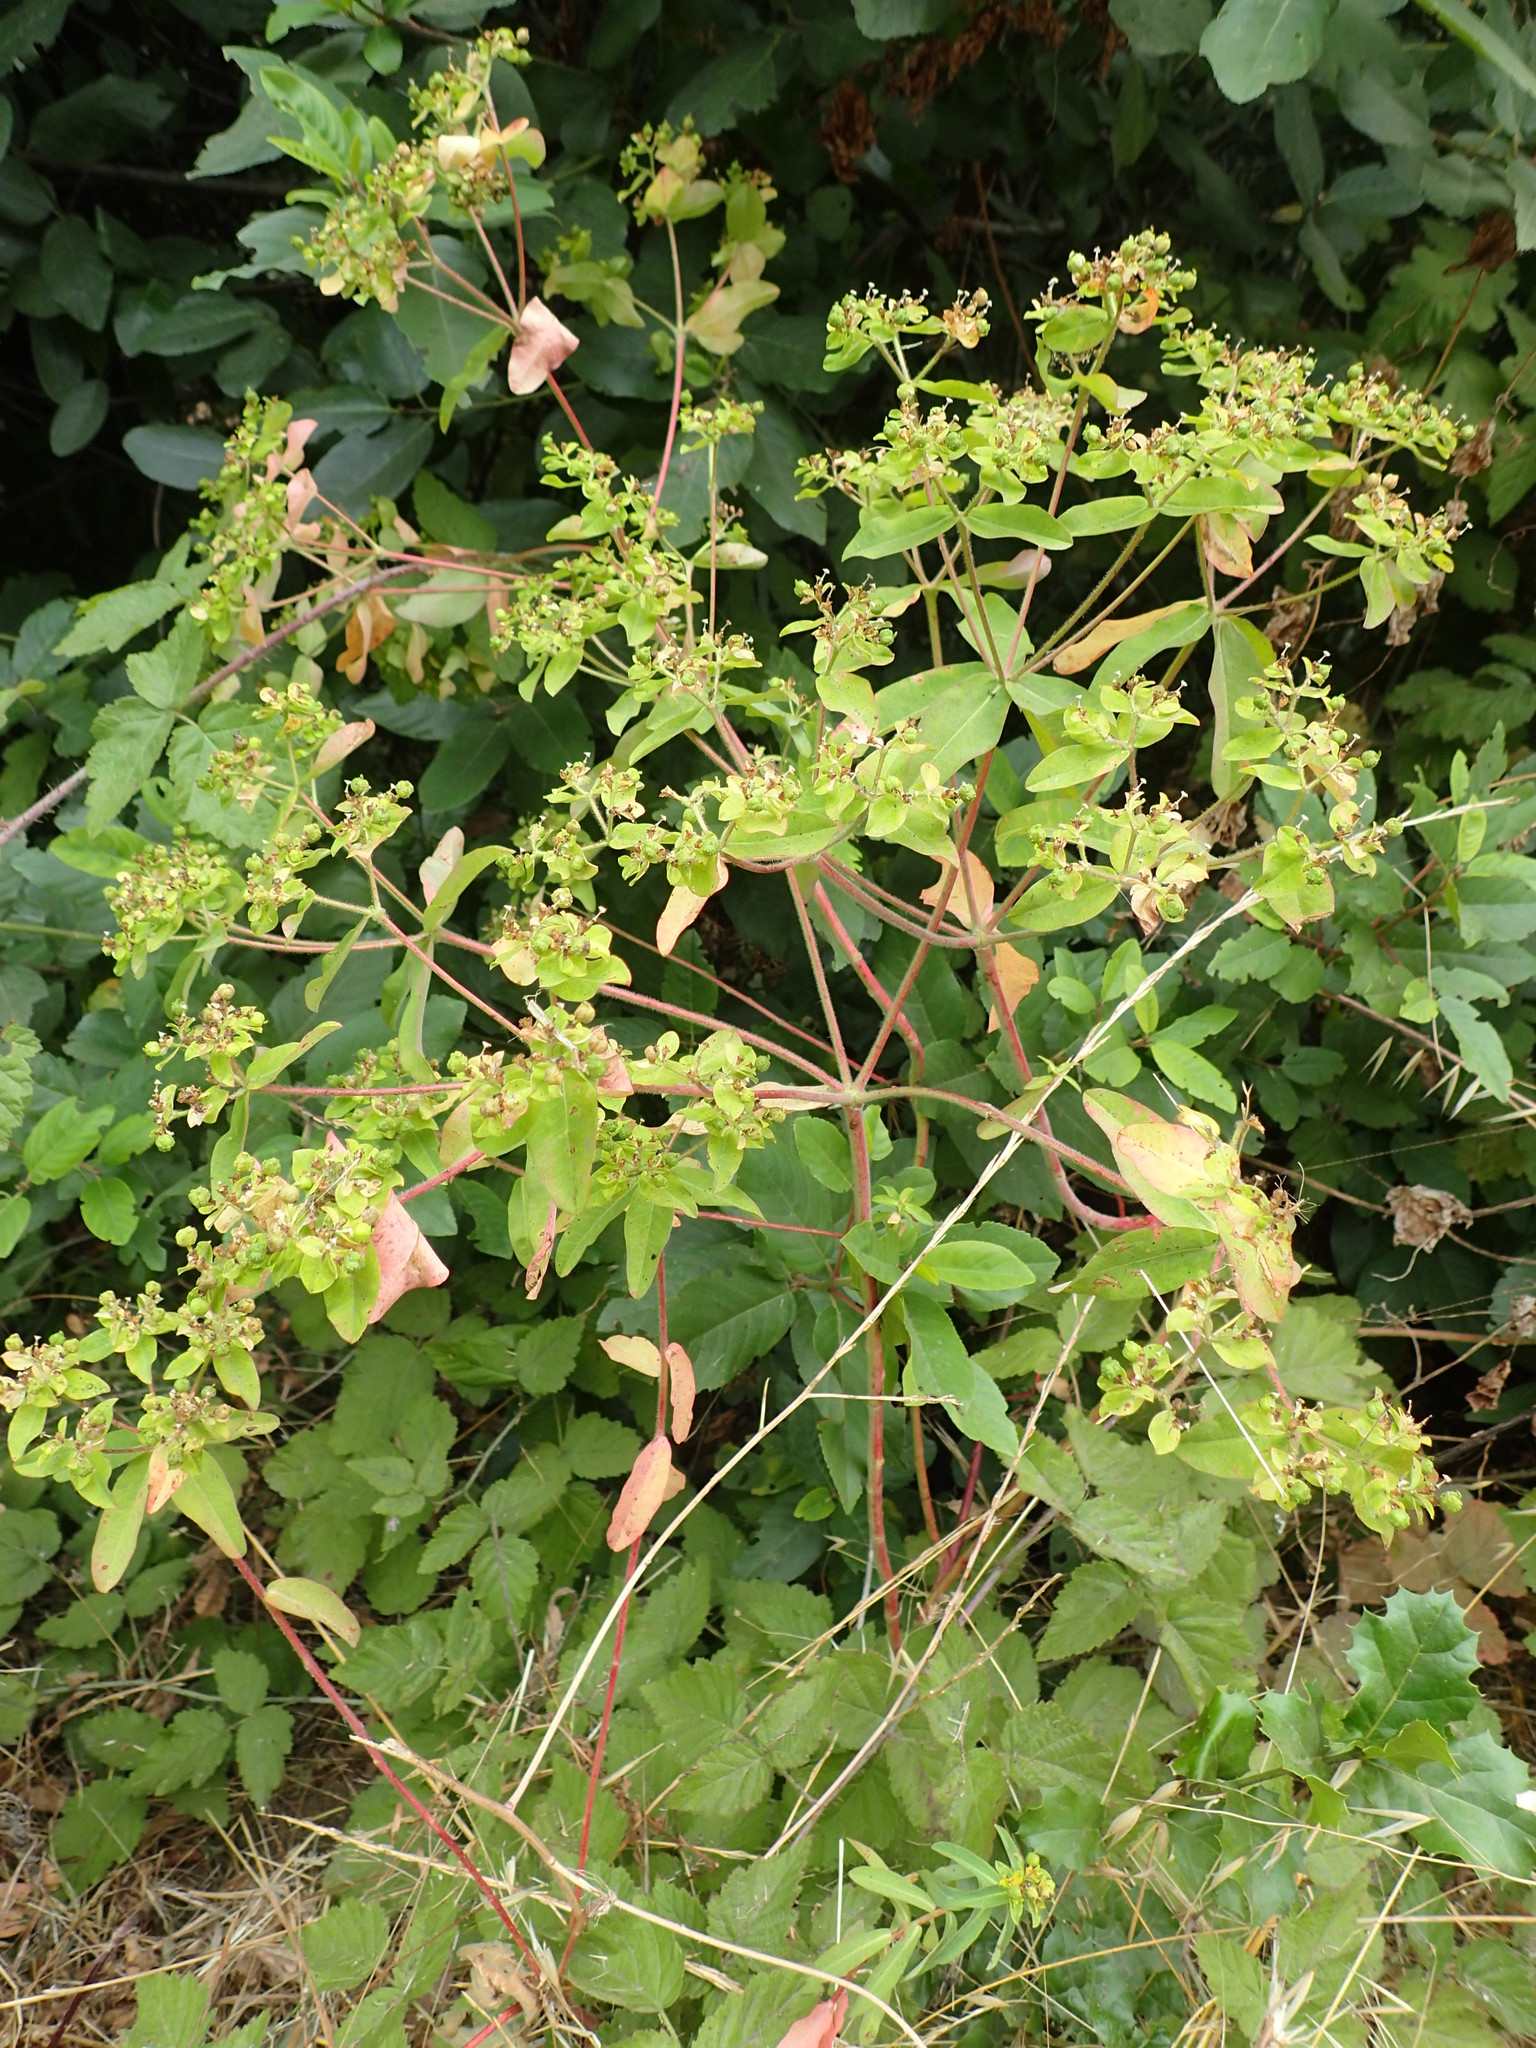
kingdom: Plantae
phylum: Tracheophyta
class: Magnoliopsida
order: Malpighiales
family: Euphorbiaceae
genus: Euphorbia
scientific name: Euphorbia oblongata
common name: Balkan spurge
